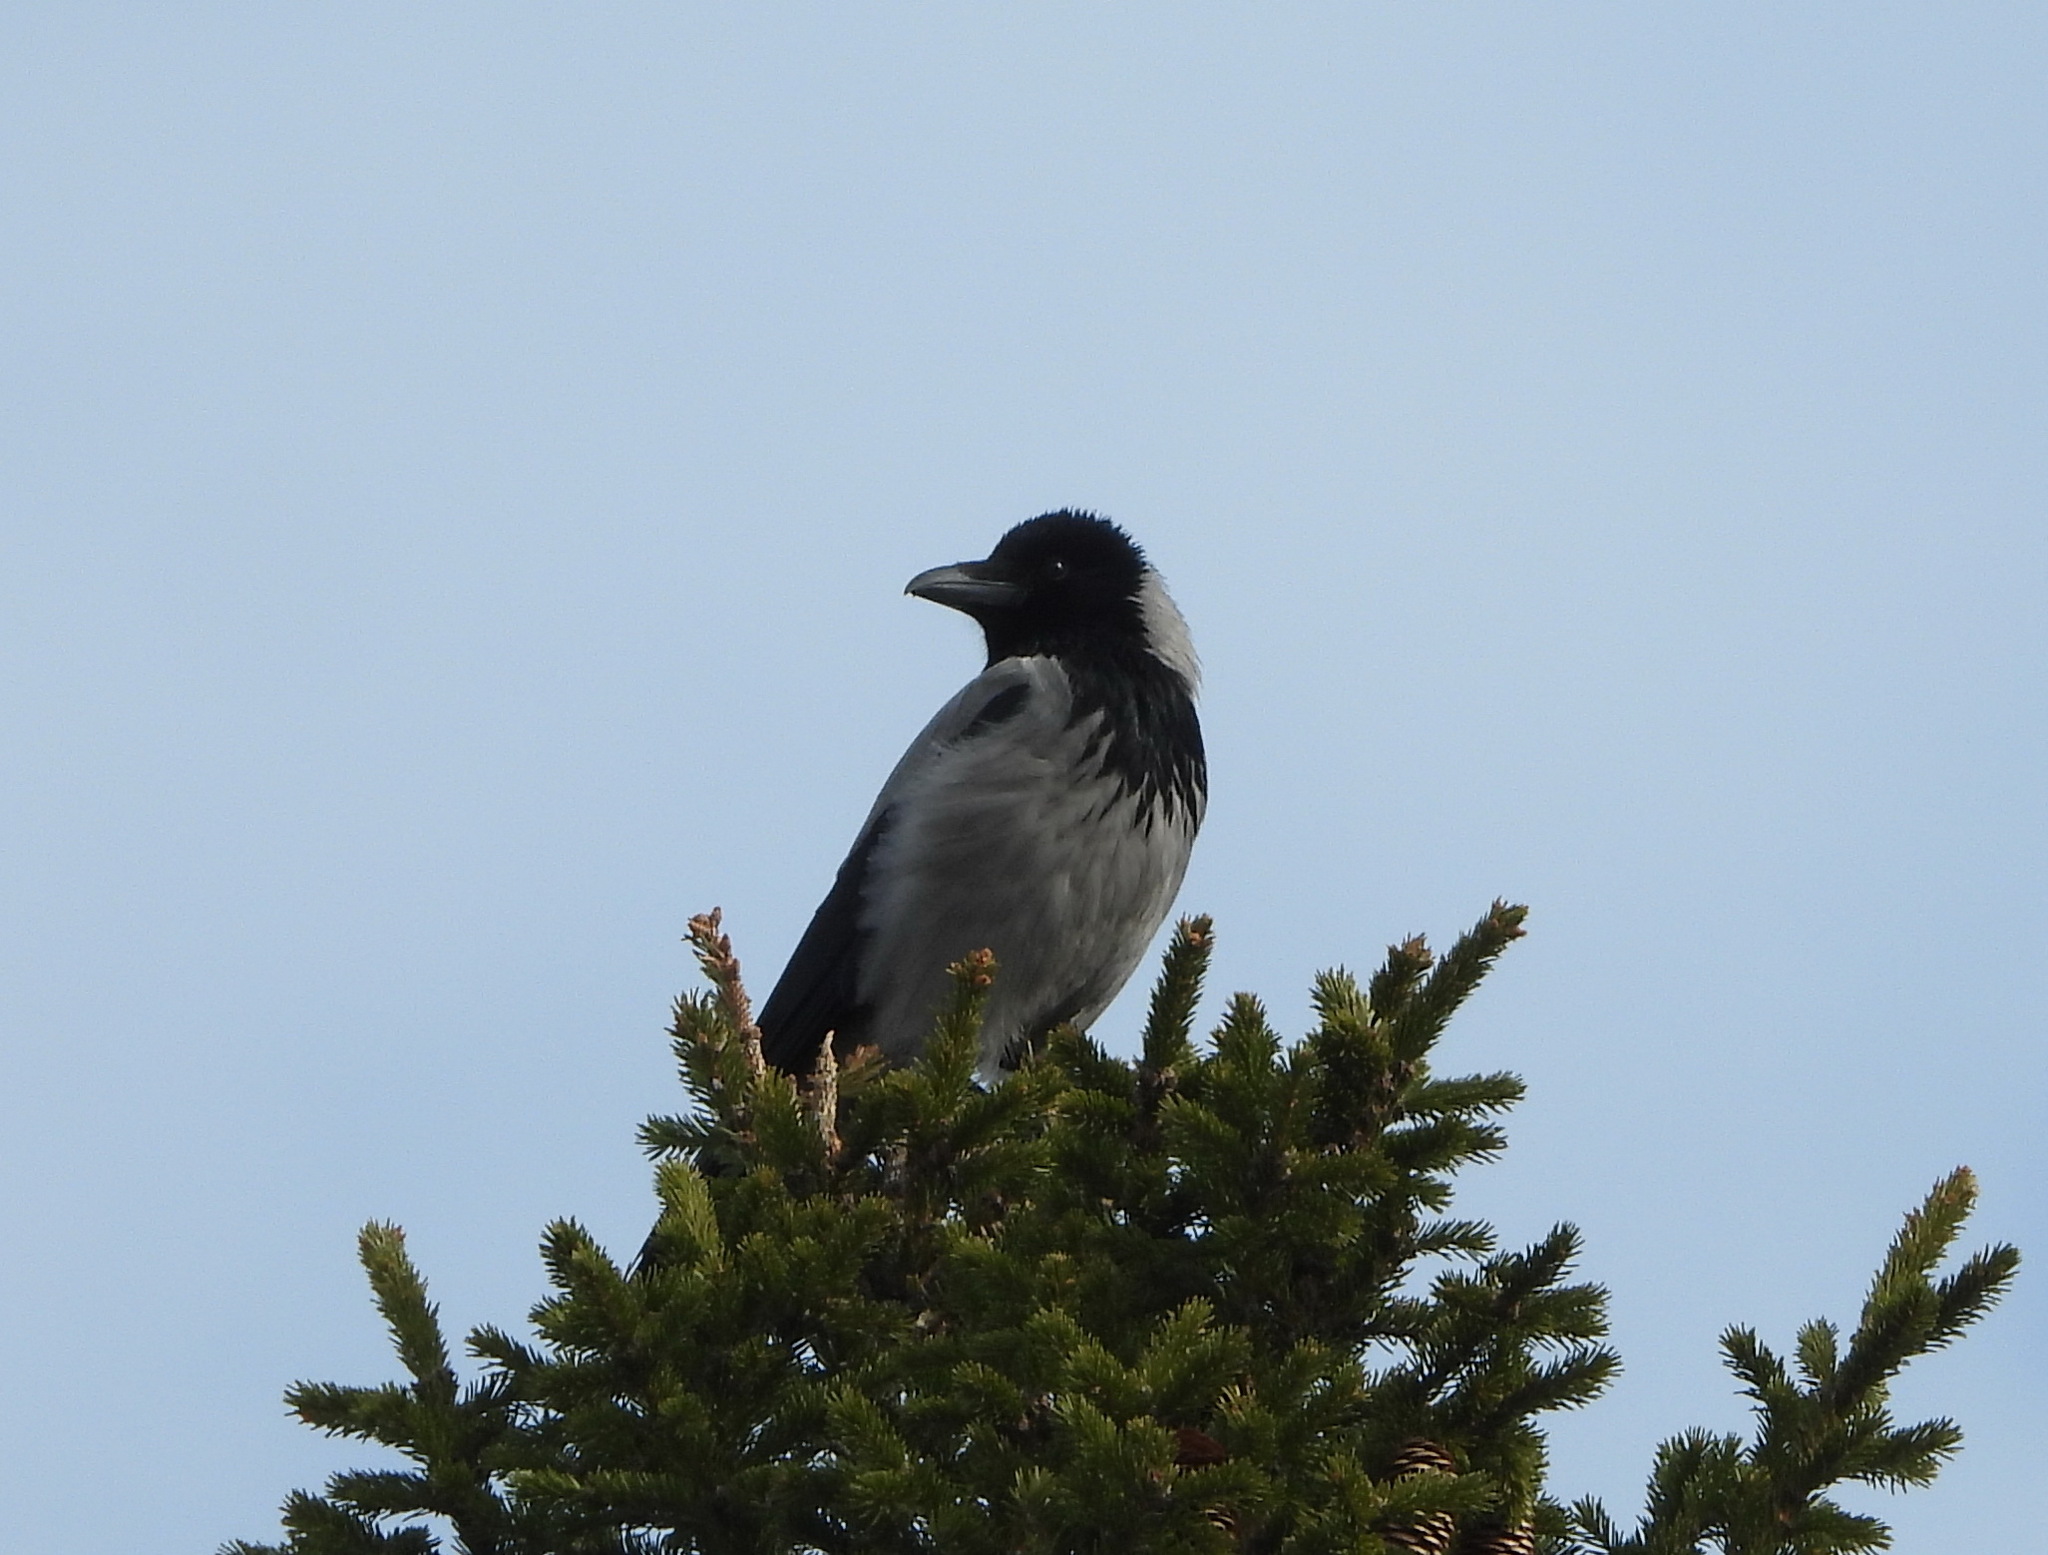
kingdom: Animalia
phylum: Chordata
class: Aves
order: Passeriformes
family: Corvidae
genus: Corvus
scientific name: Corvus cornix
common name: Hooded crow
